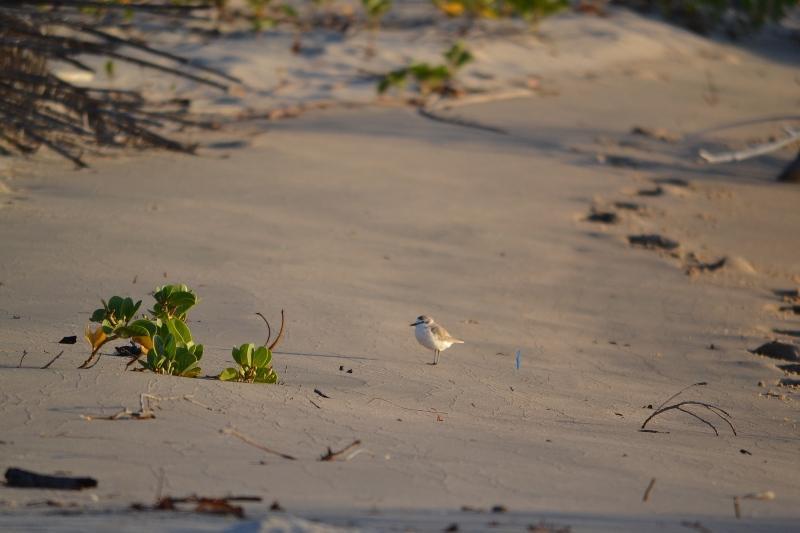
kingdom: Plantae
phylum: Tracheophyta
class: Magnoliopsida
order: Asterales
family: Goodeniaceae
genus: Scaevola
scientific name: Scaevola plumieri
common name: Gull feed
